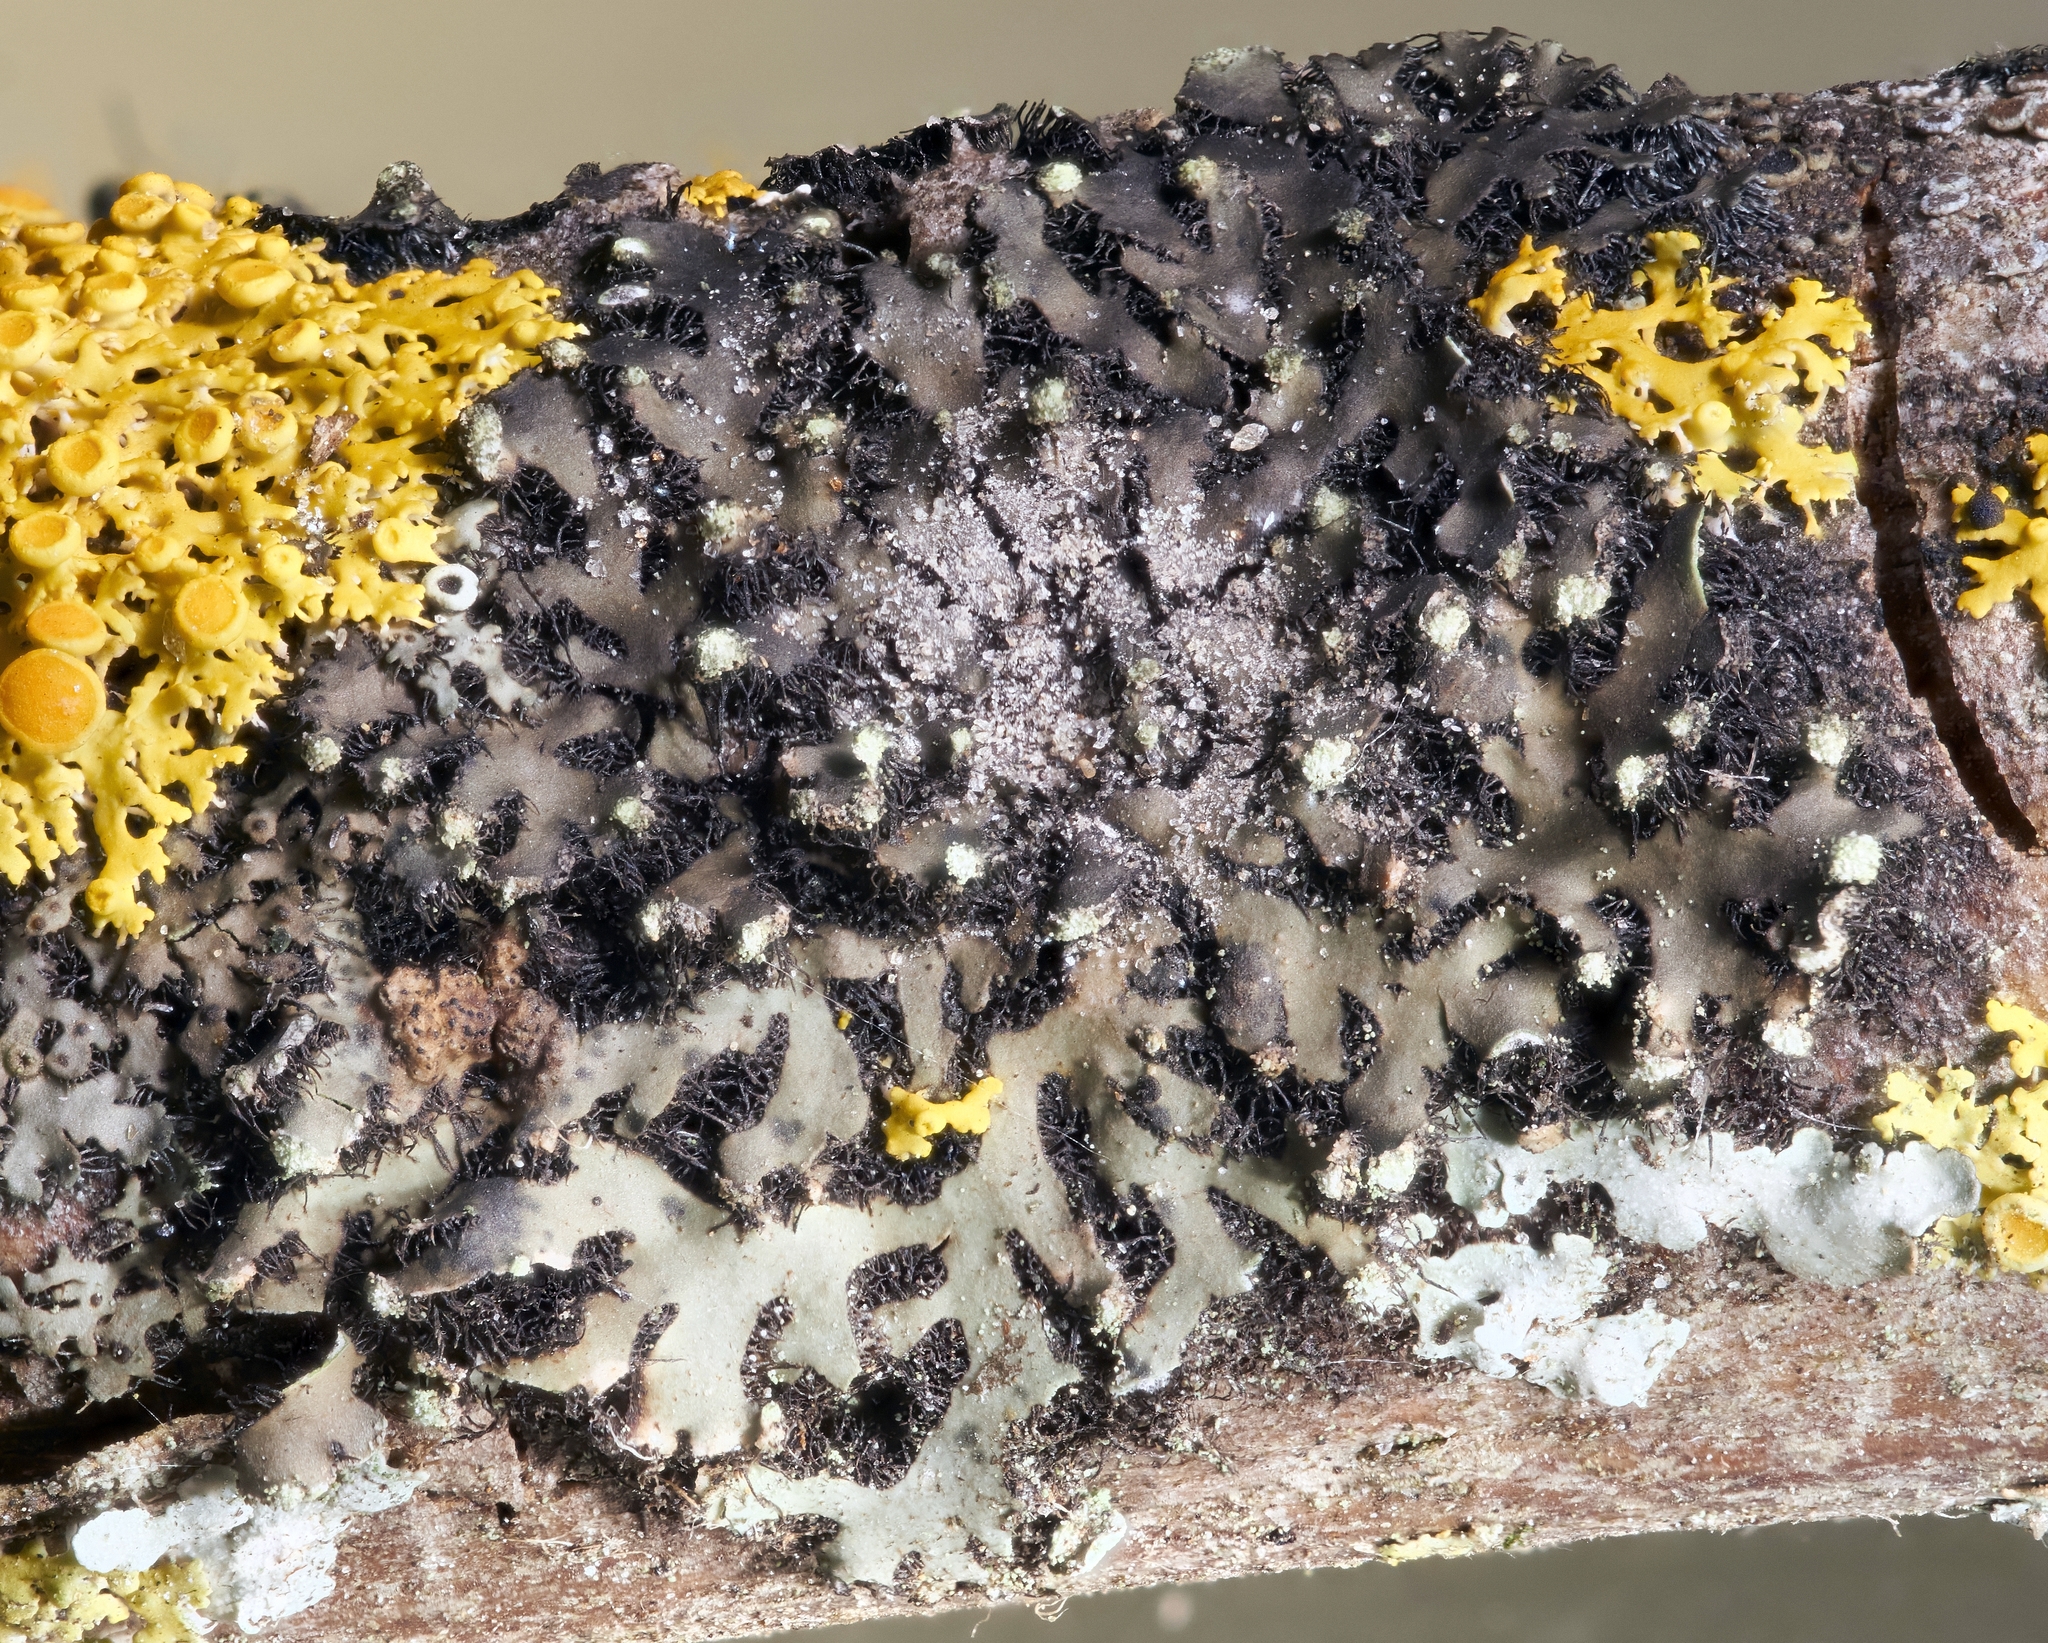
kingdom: Fungi
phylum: Ascomycota
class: Lecanoromycetes
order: Caliciales
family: Physciaceae
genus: Phaeophyscia
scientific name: Phaeophyscia pusilloides
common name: Pom-pom shadow lichen
